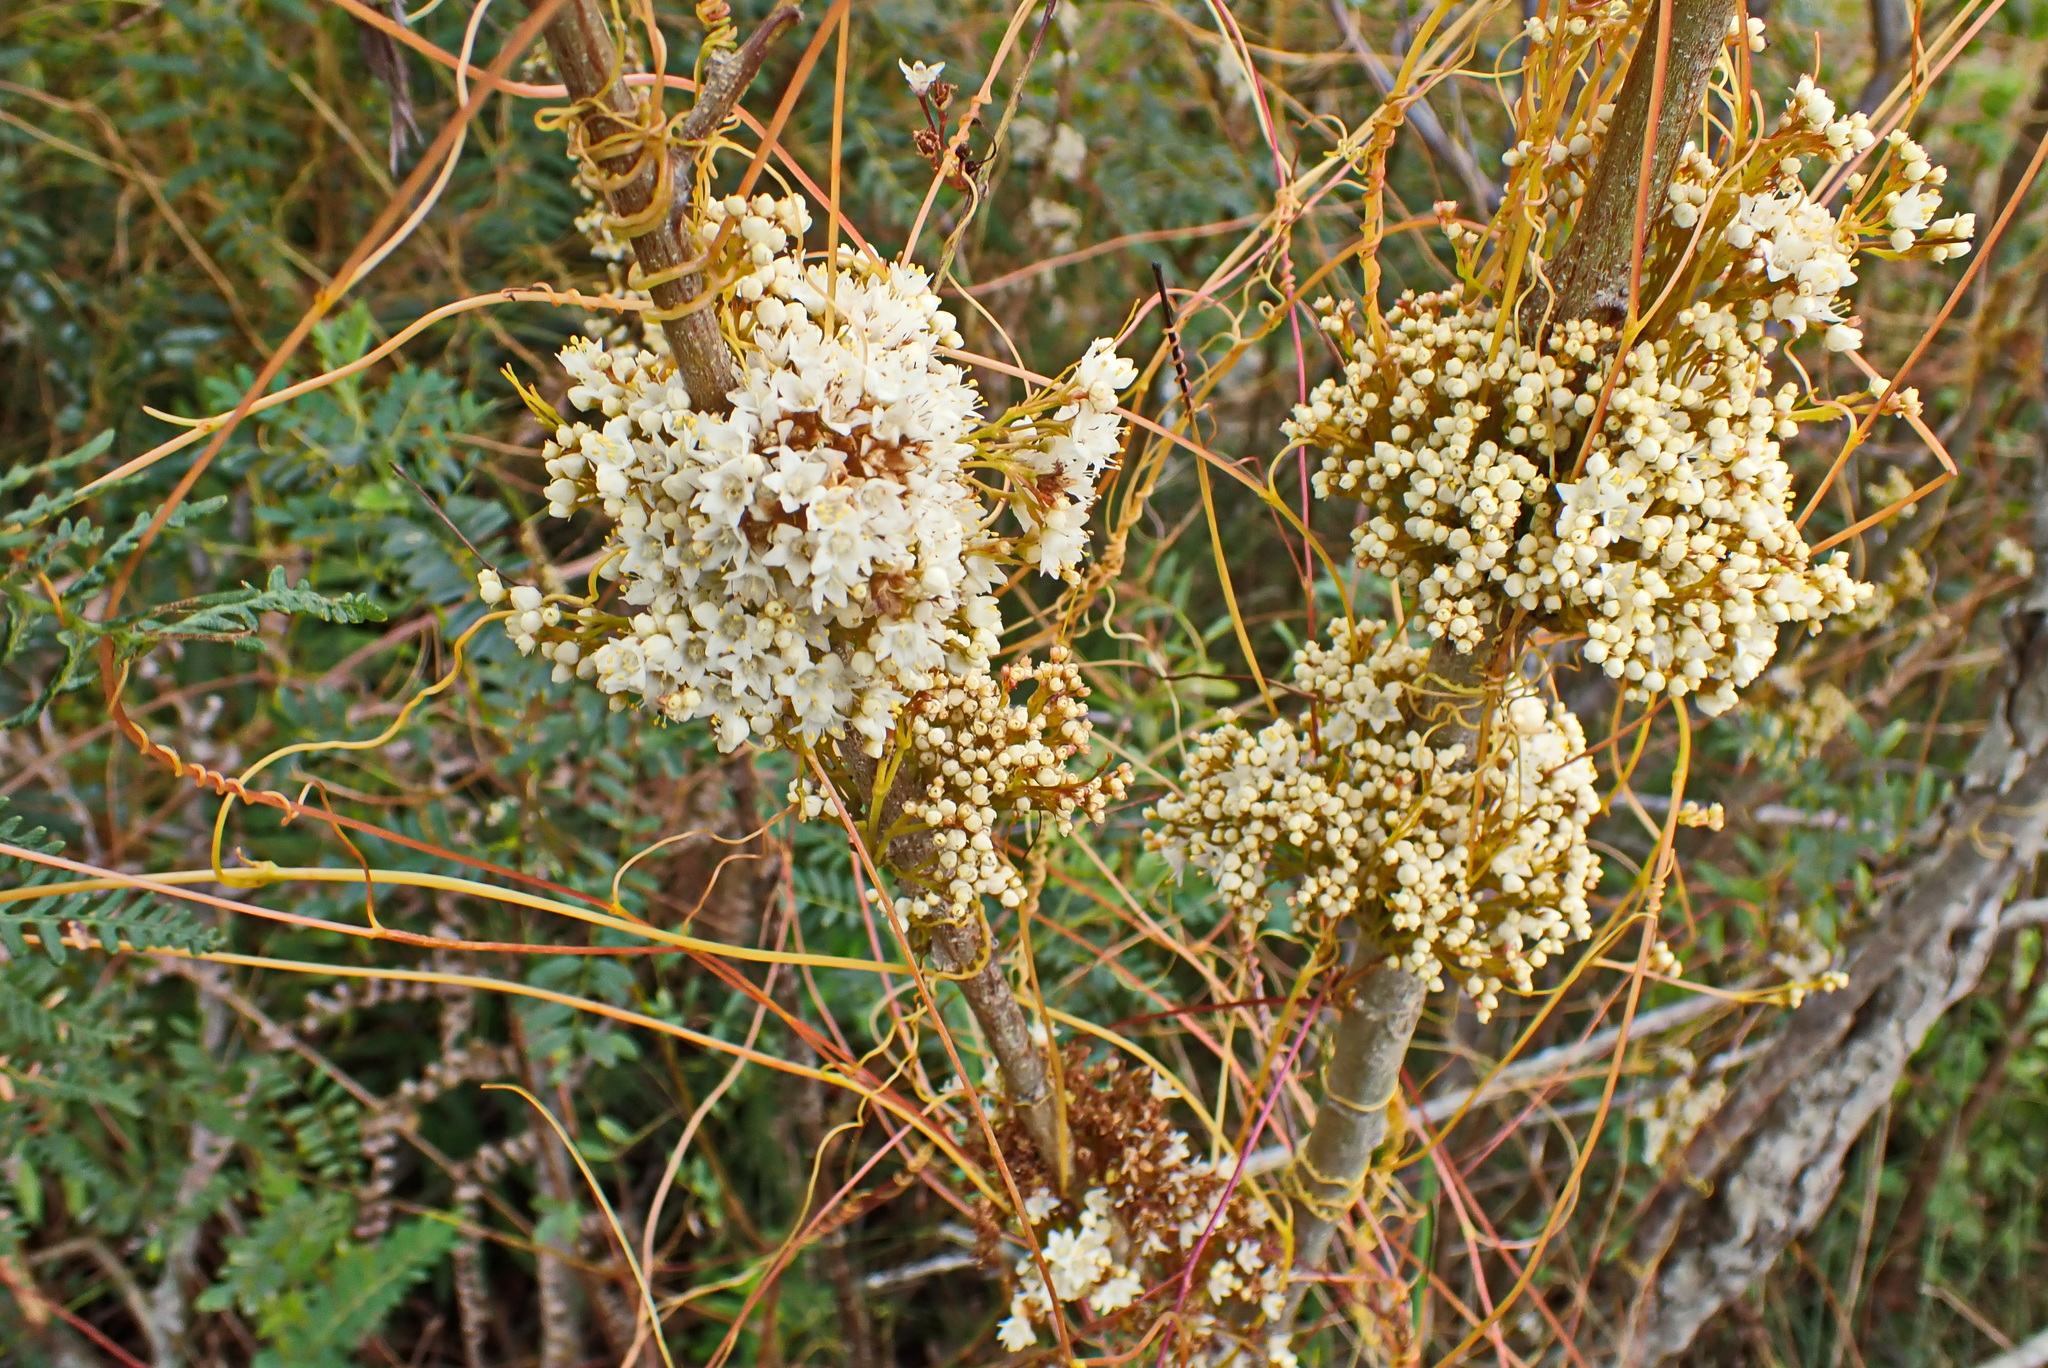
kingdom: Plantae
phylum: Tracheophyta
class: Magnoliopsida
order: Solanales
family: Convolvulaceae
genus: Cuscuta
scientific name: Cuscuta africana
